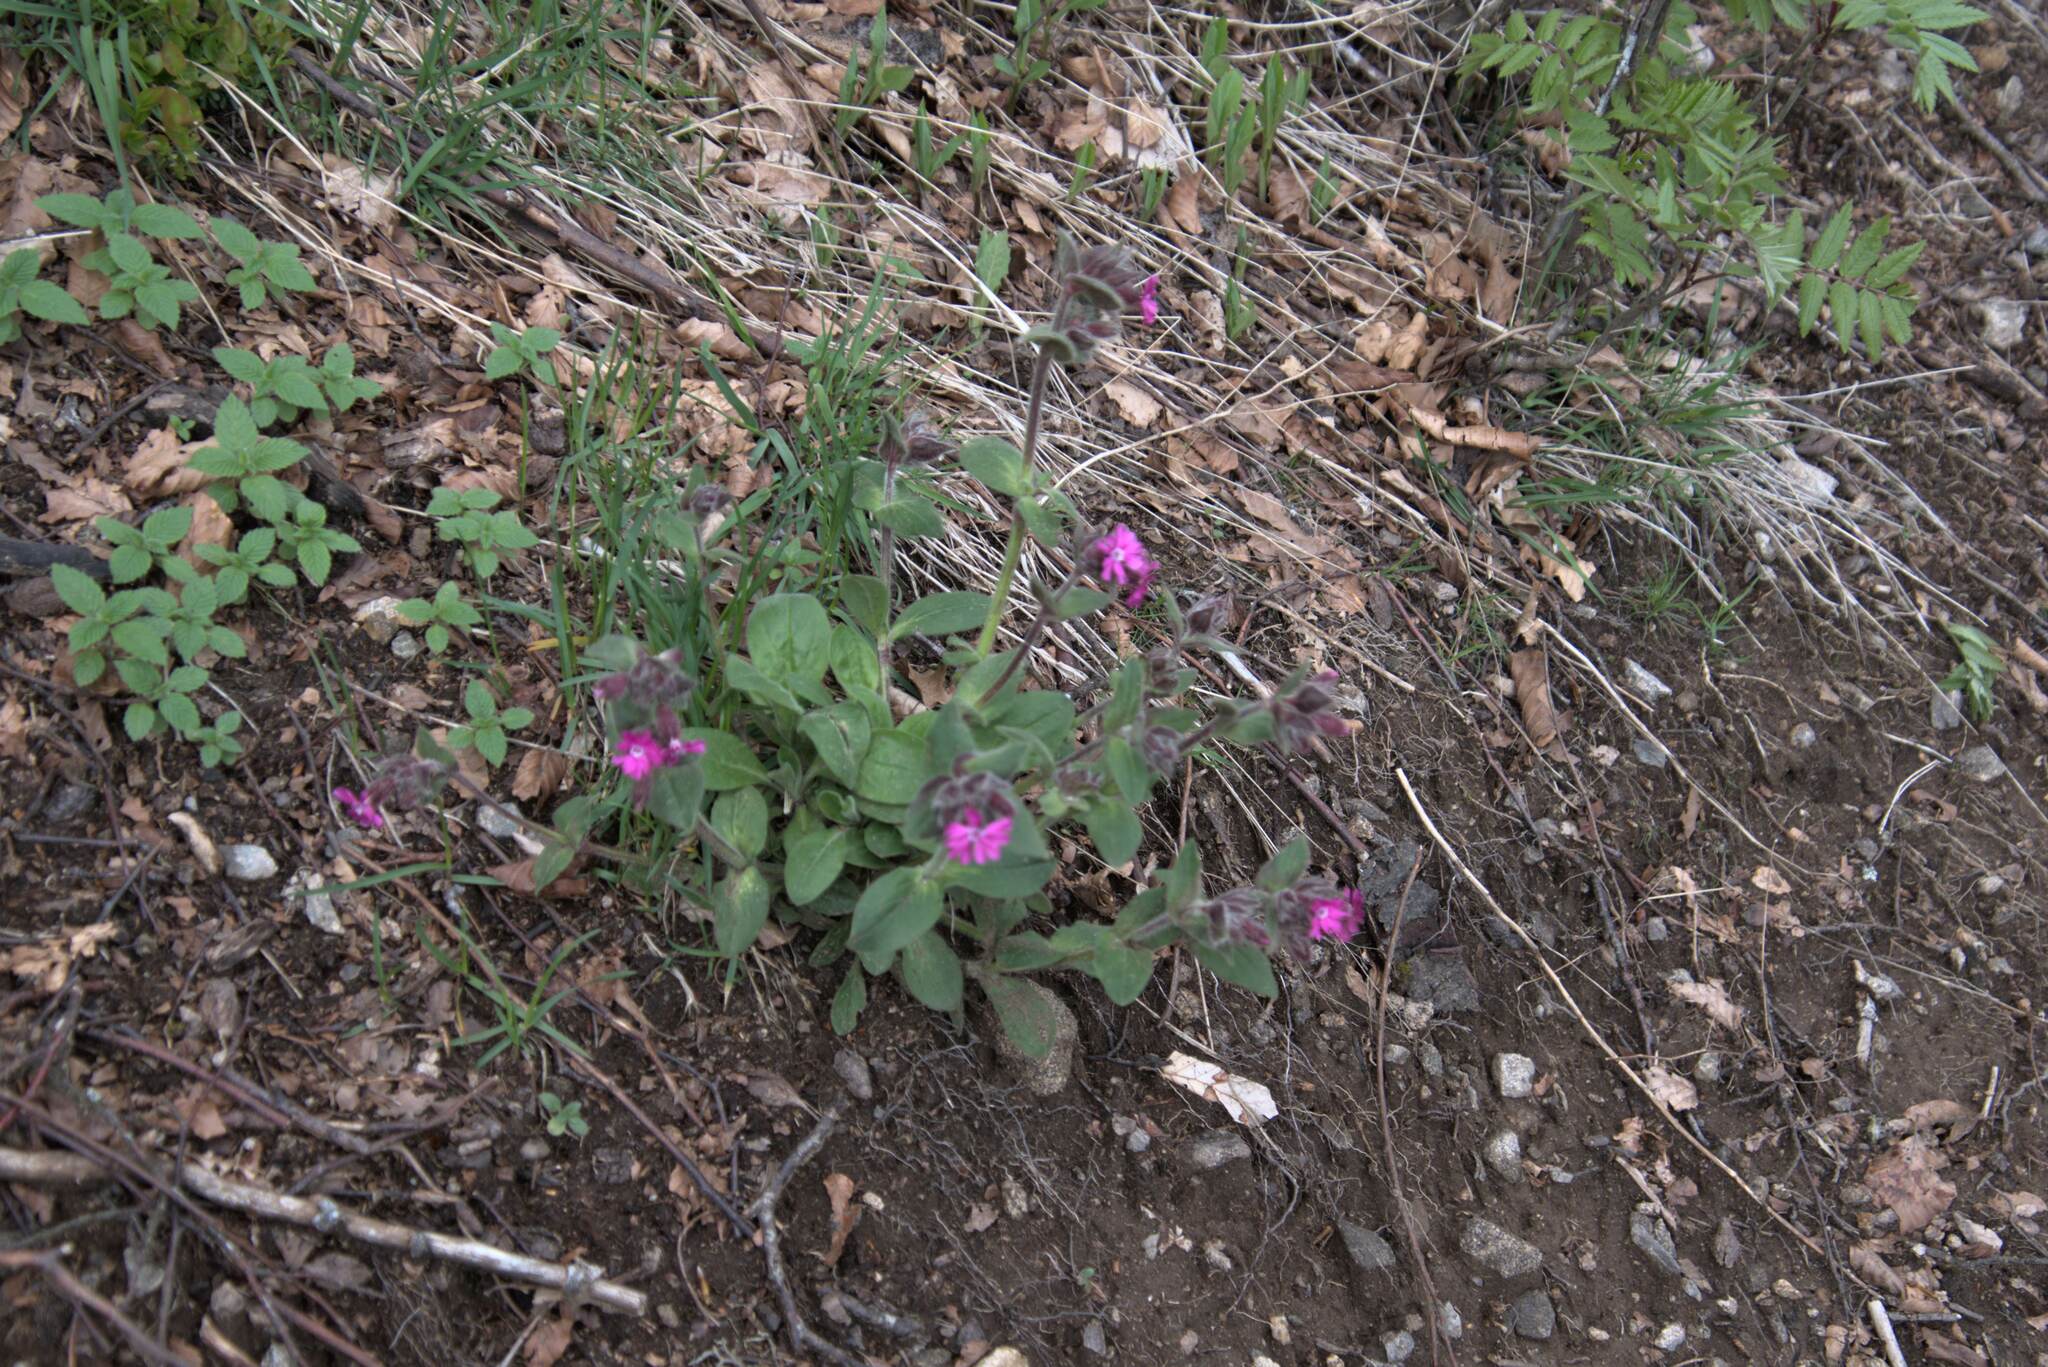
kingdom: Plantae
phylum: Tracheophyta
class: Magnoliopsida
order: Caryophyllales
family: Caryophyllaceae
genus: Silene
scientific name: Silene dioica
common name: Red campion
